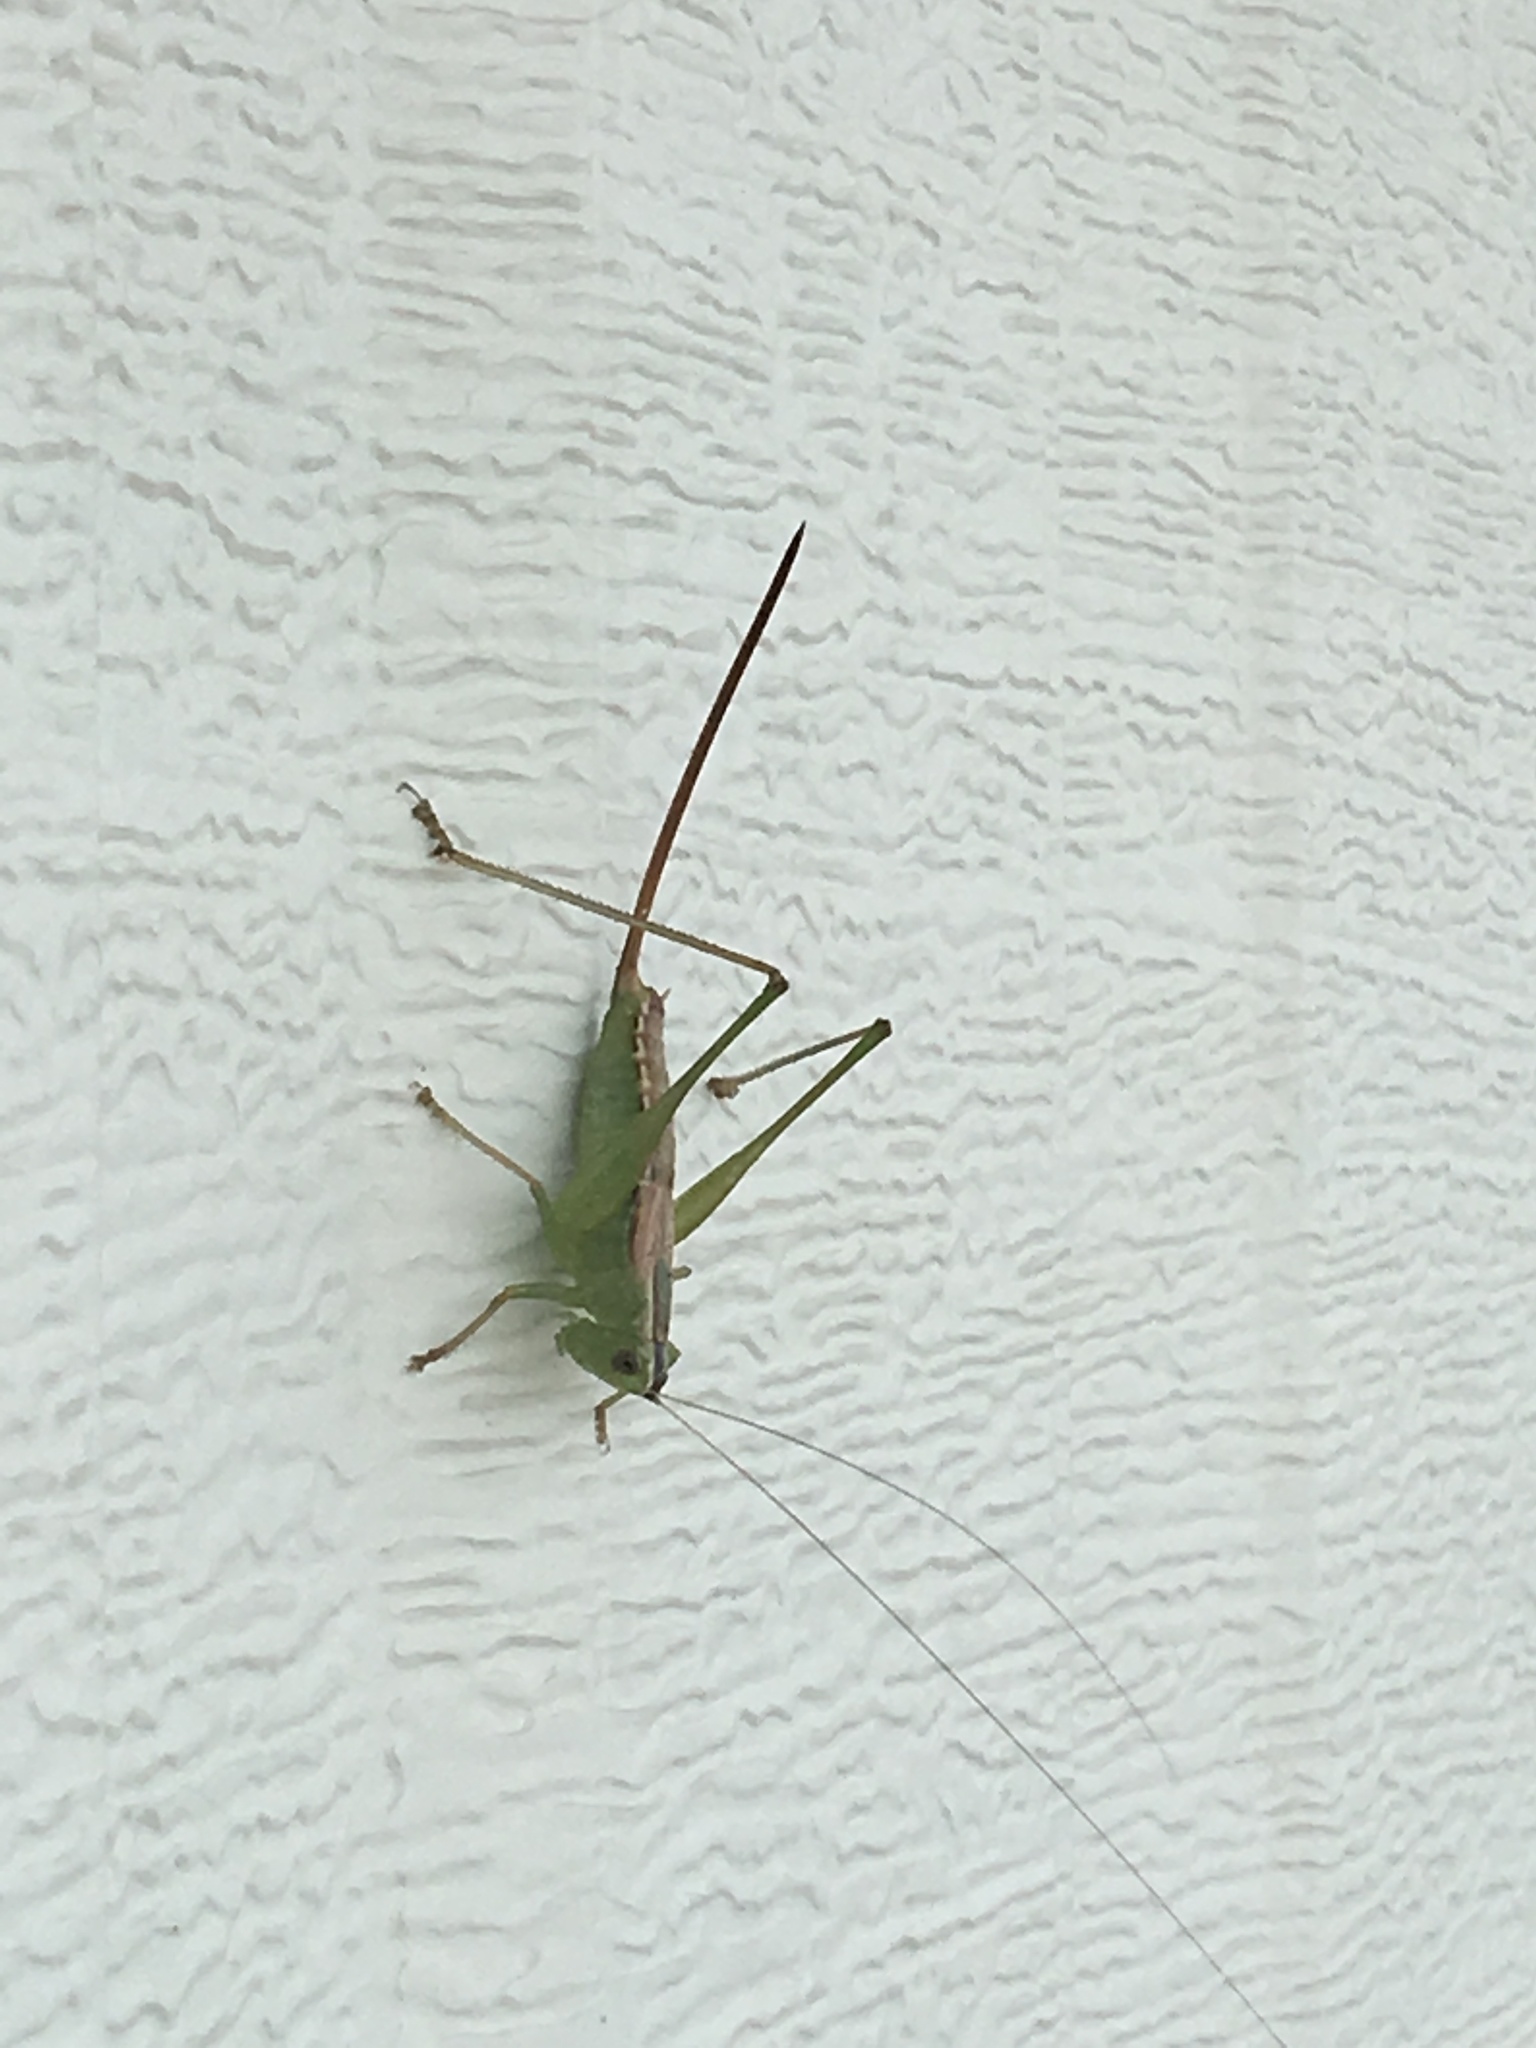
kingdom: Animalia
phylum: Arthropoda
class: Insecta
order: Orthoptera
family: Tettigoniidae
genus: Conocephalus
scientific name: Conocephalus strictus
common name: Straight-lanced katydid
